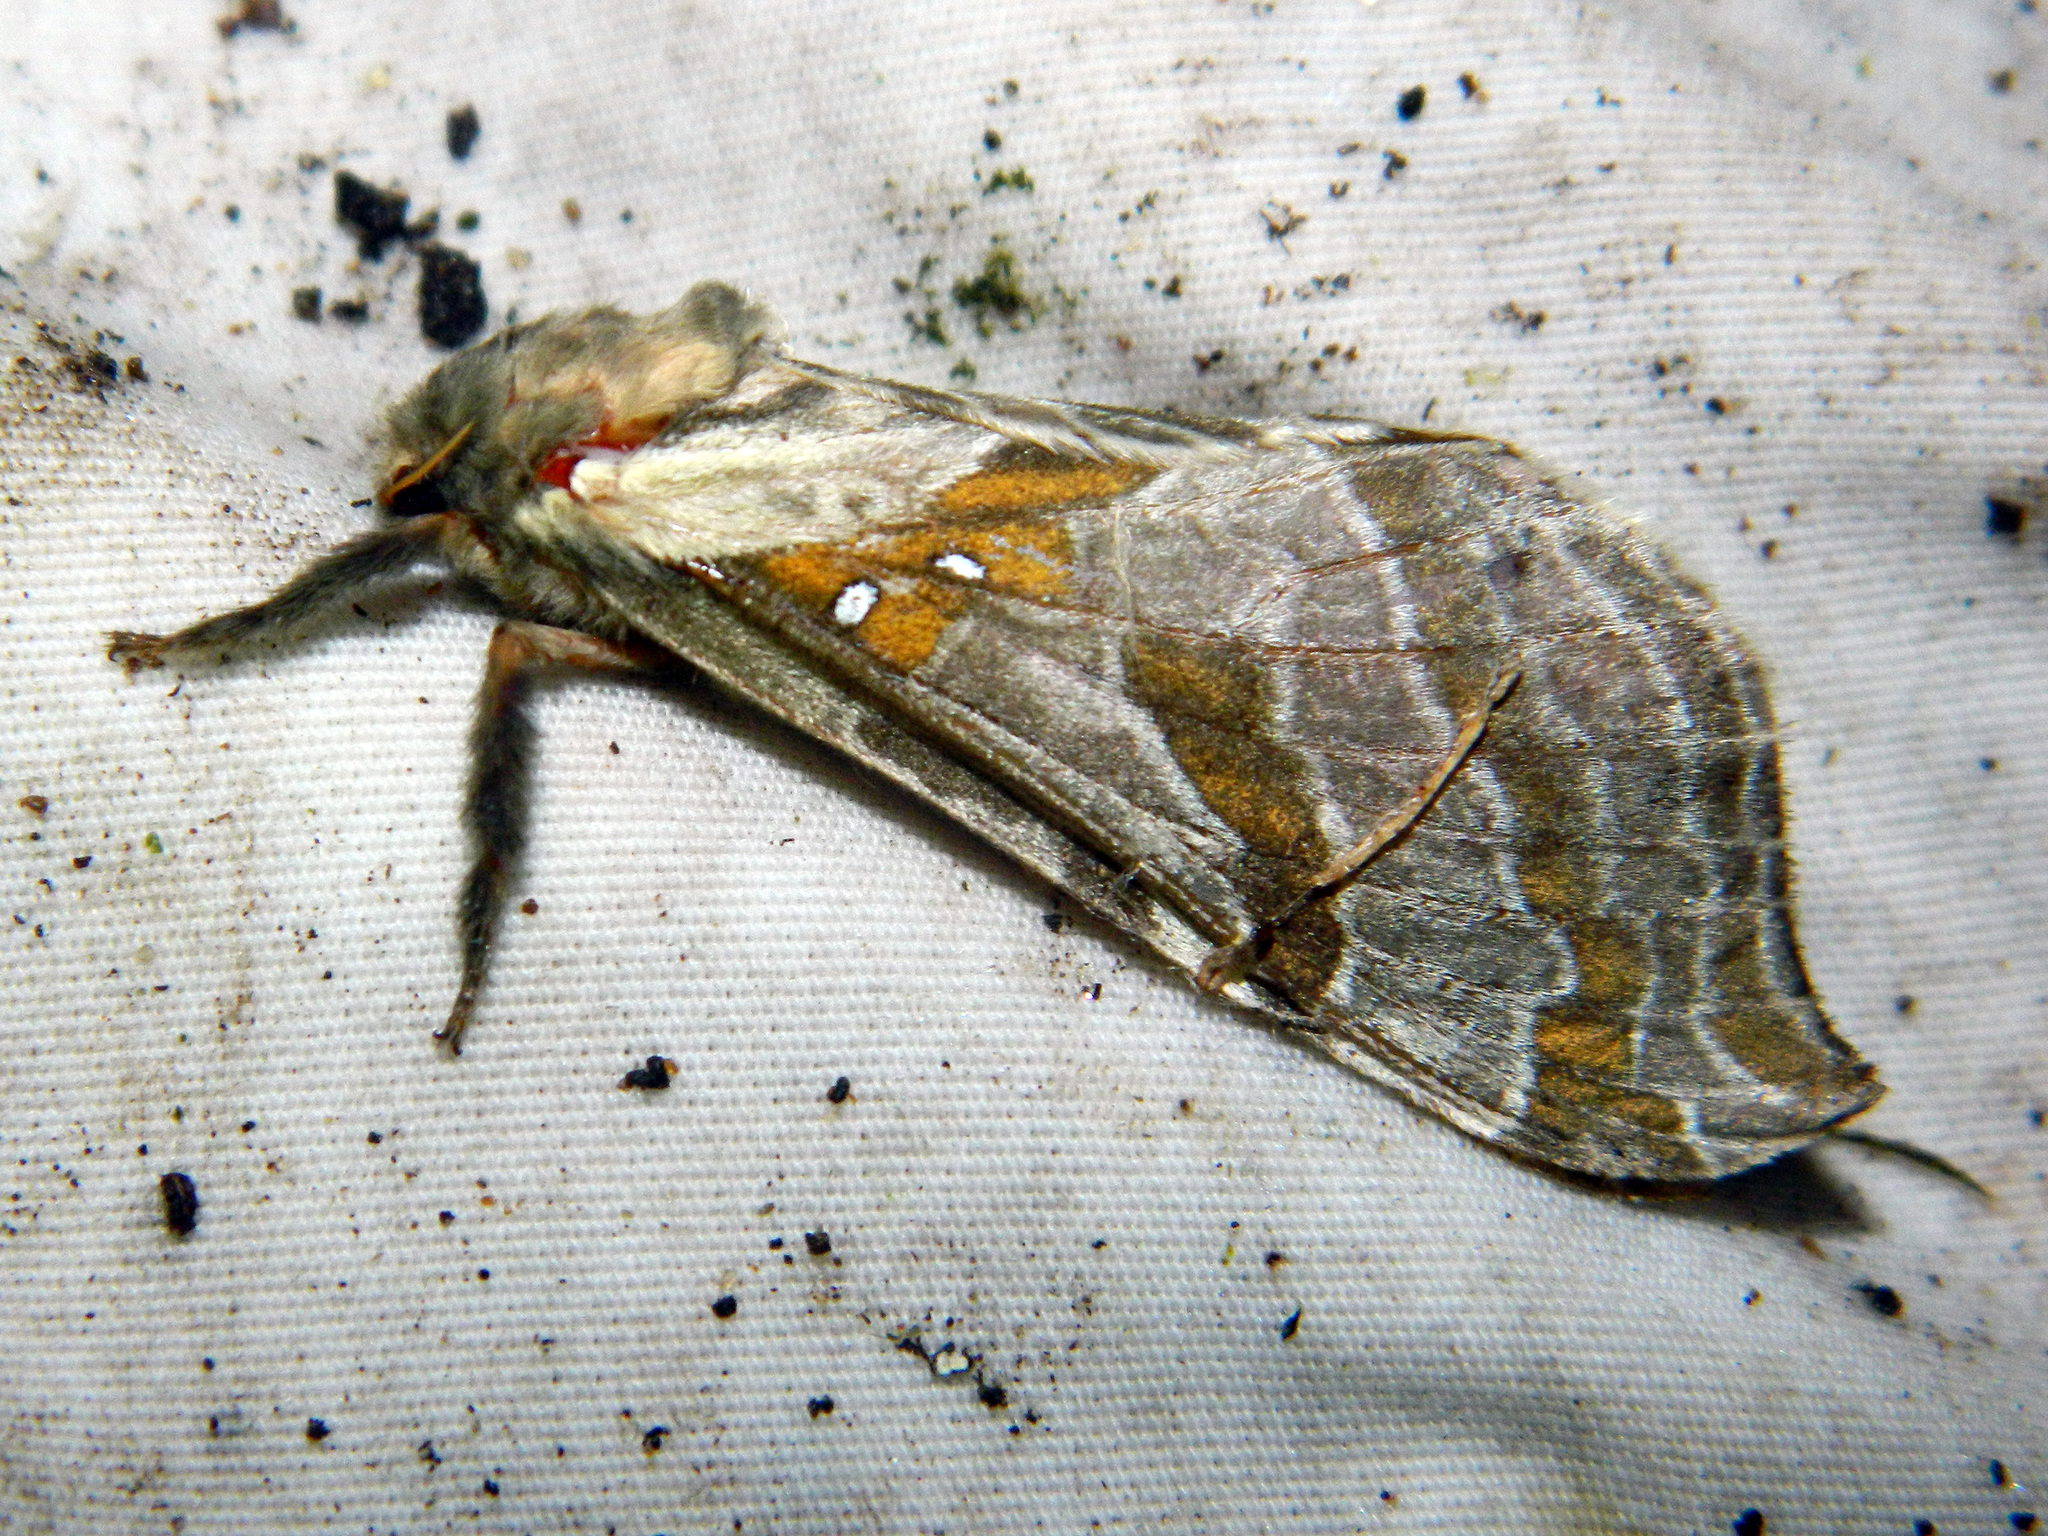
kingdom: Animalia
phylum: Arthropoda
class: Insecta
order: Lepidoptera
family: Hepialidae
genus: Sthenopis
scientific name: Sthenopis argenteomaculatus
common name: Silver-spotted ghost moth
